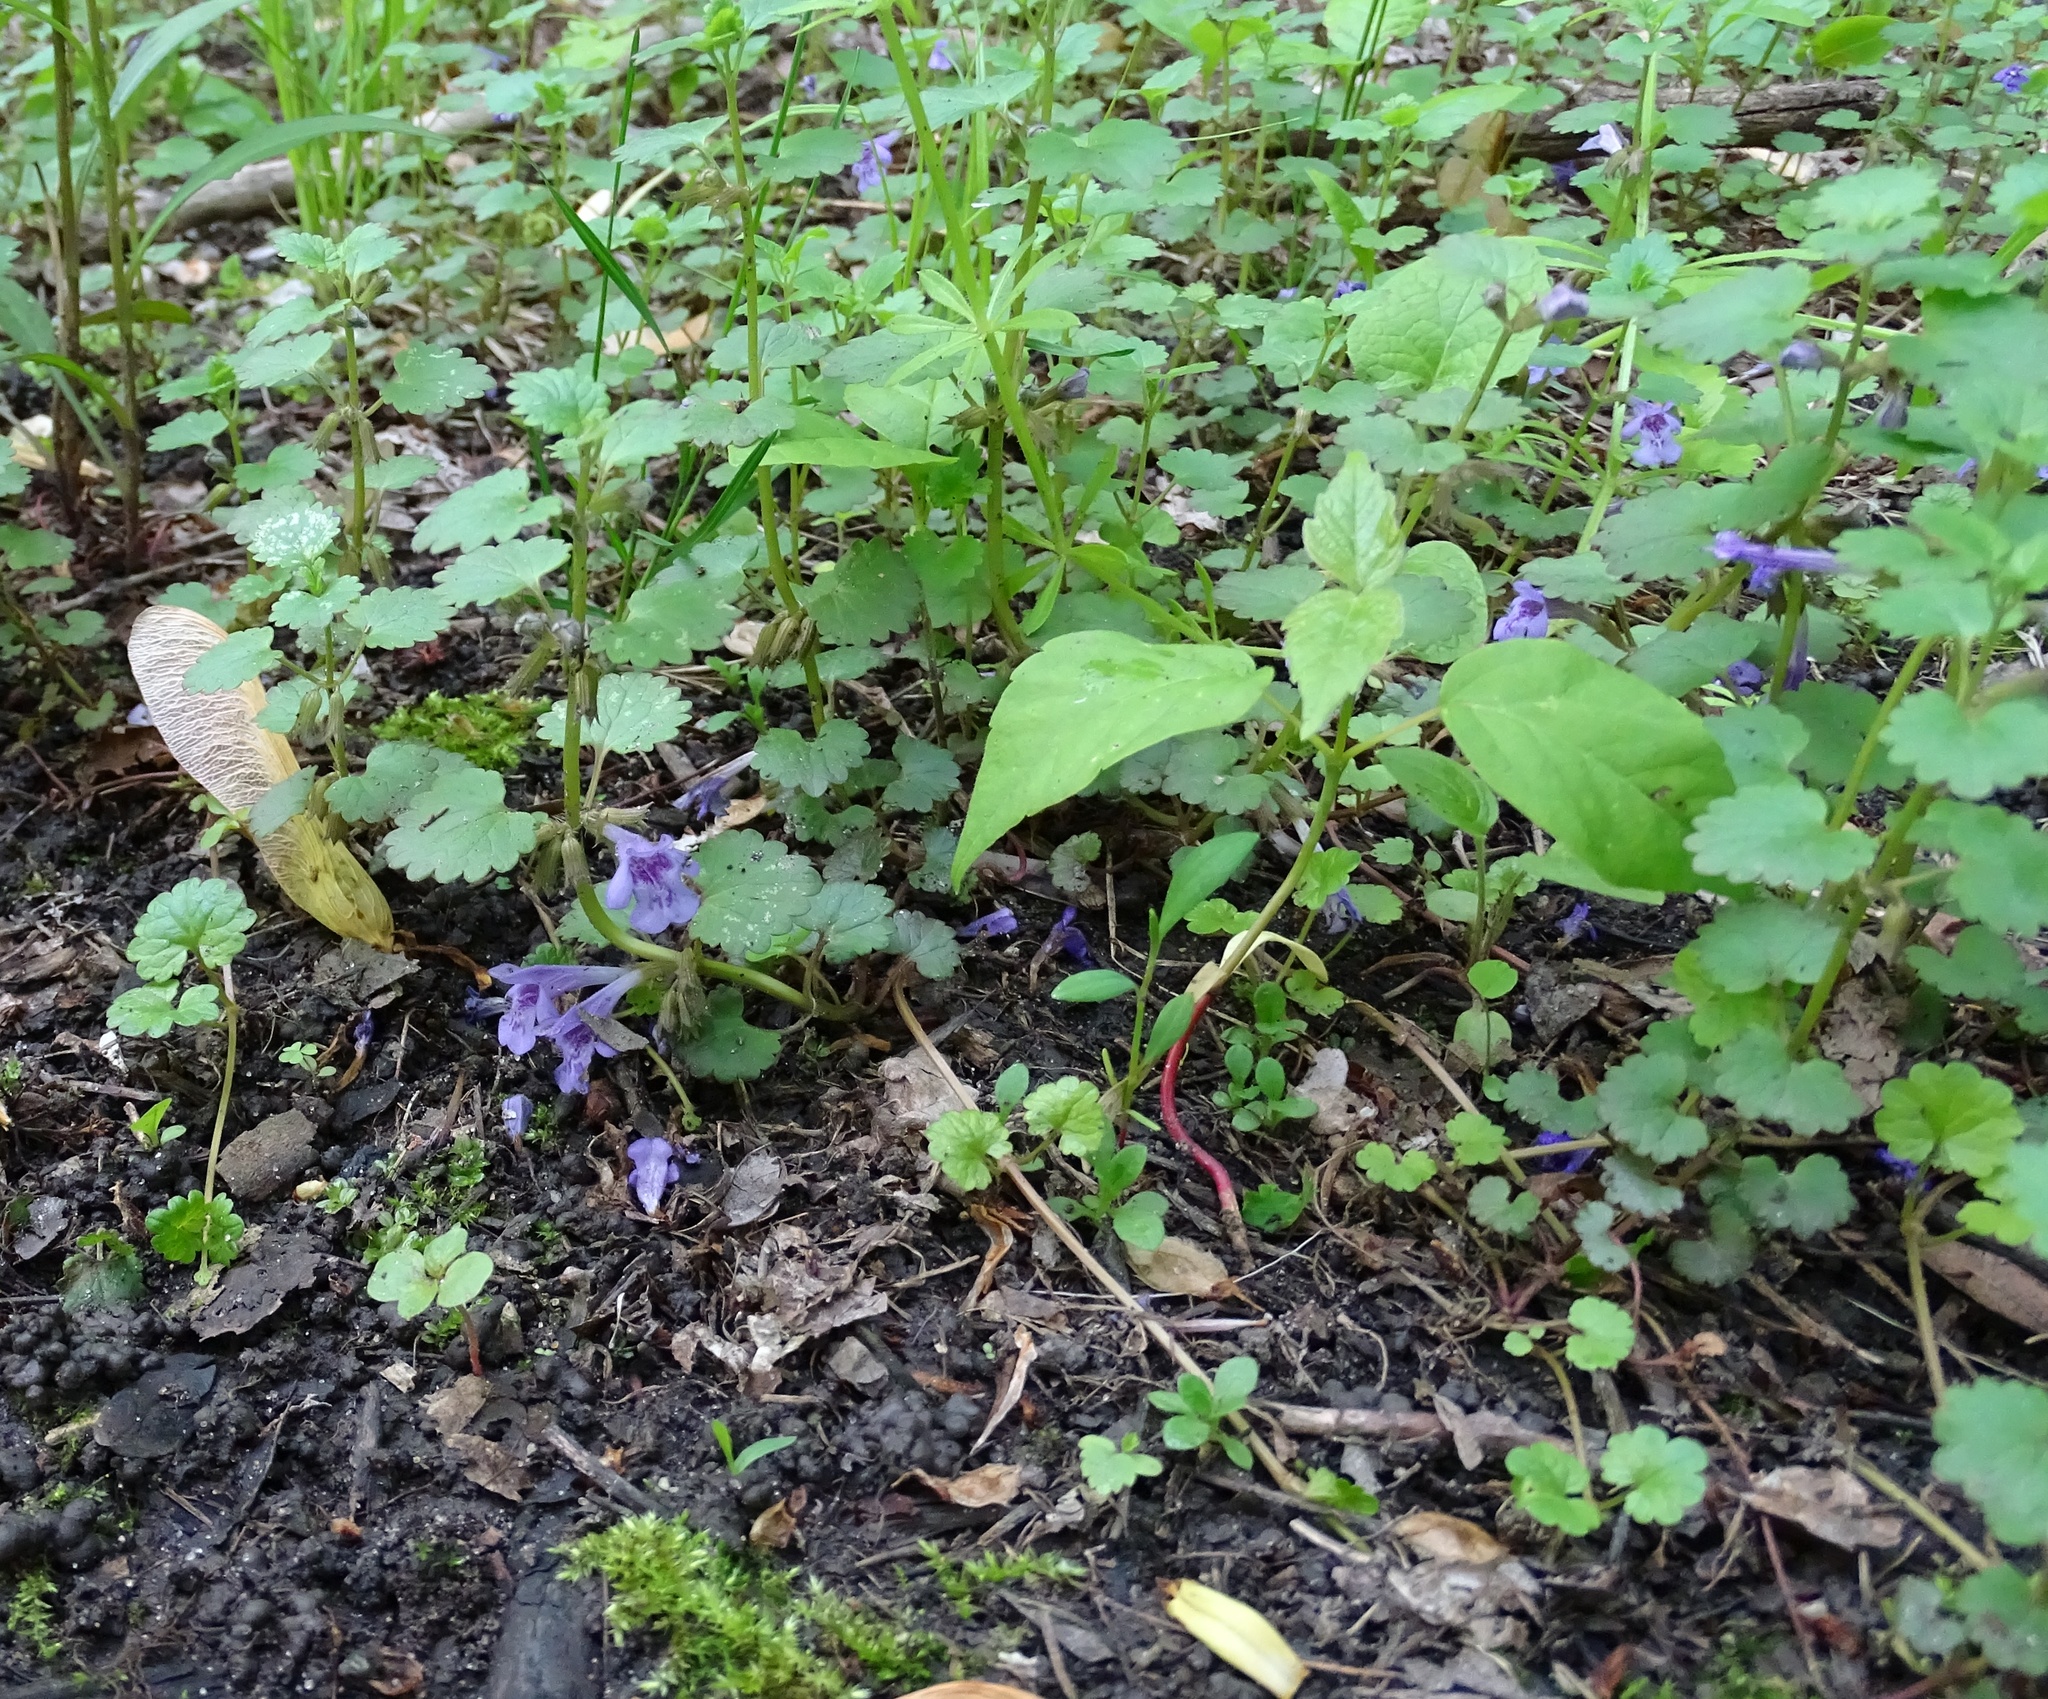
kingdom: Plantae
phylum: Tracheophyta
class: Magnoliopsida
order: Lamiales
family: Lamiaceae
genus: Glechoma
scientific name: Glechoma hederacea
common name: Ground ivy
